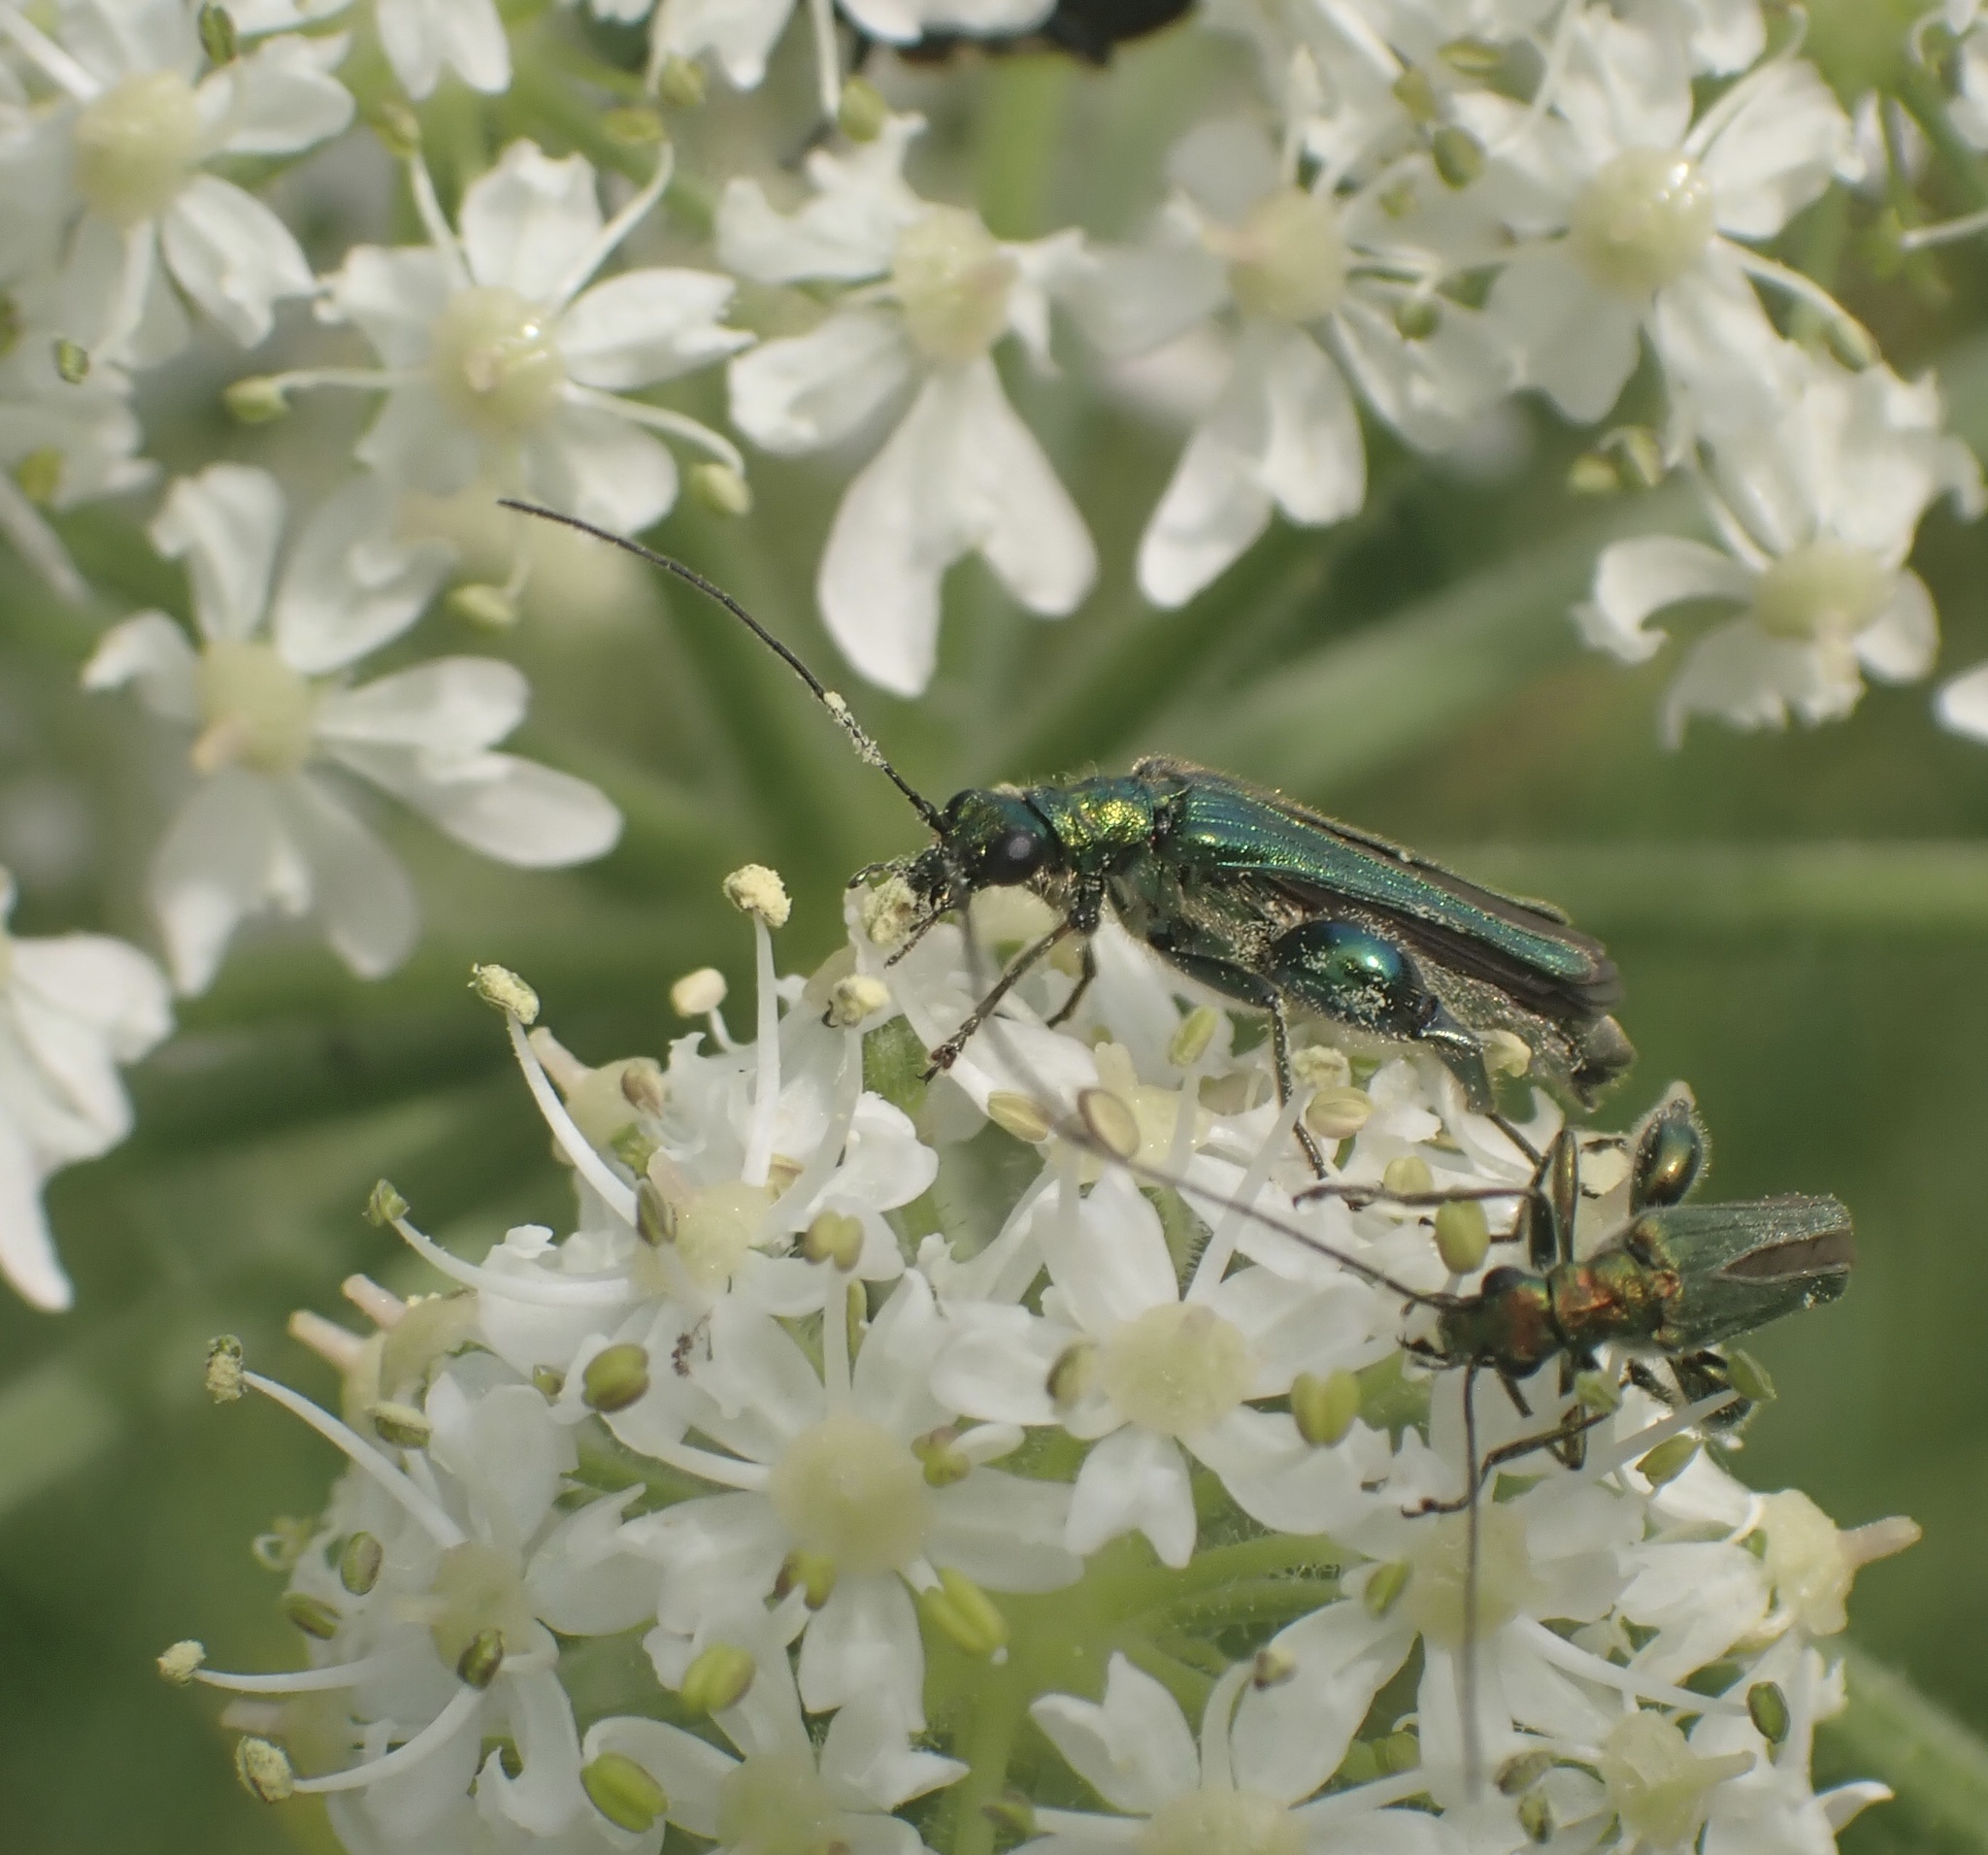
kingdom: Animalia
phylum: Arthropoda
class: Insecta
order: Coleoptera
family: Oedemeridae
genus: Oedemera
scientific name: Oedemera nobilis
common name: Swollen-thighed beetle
